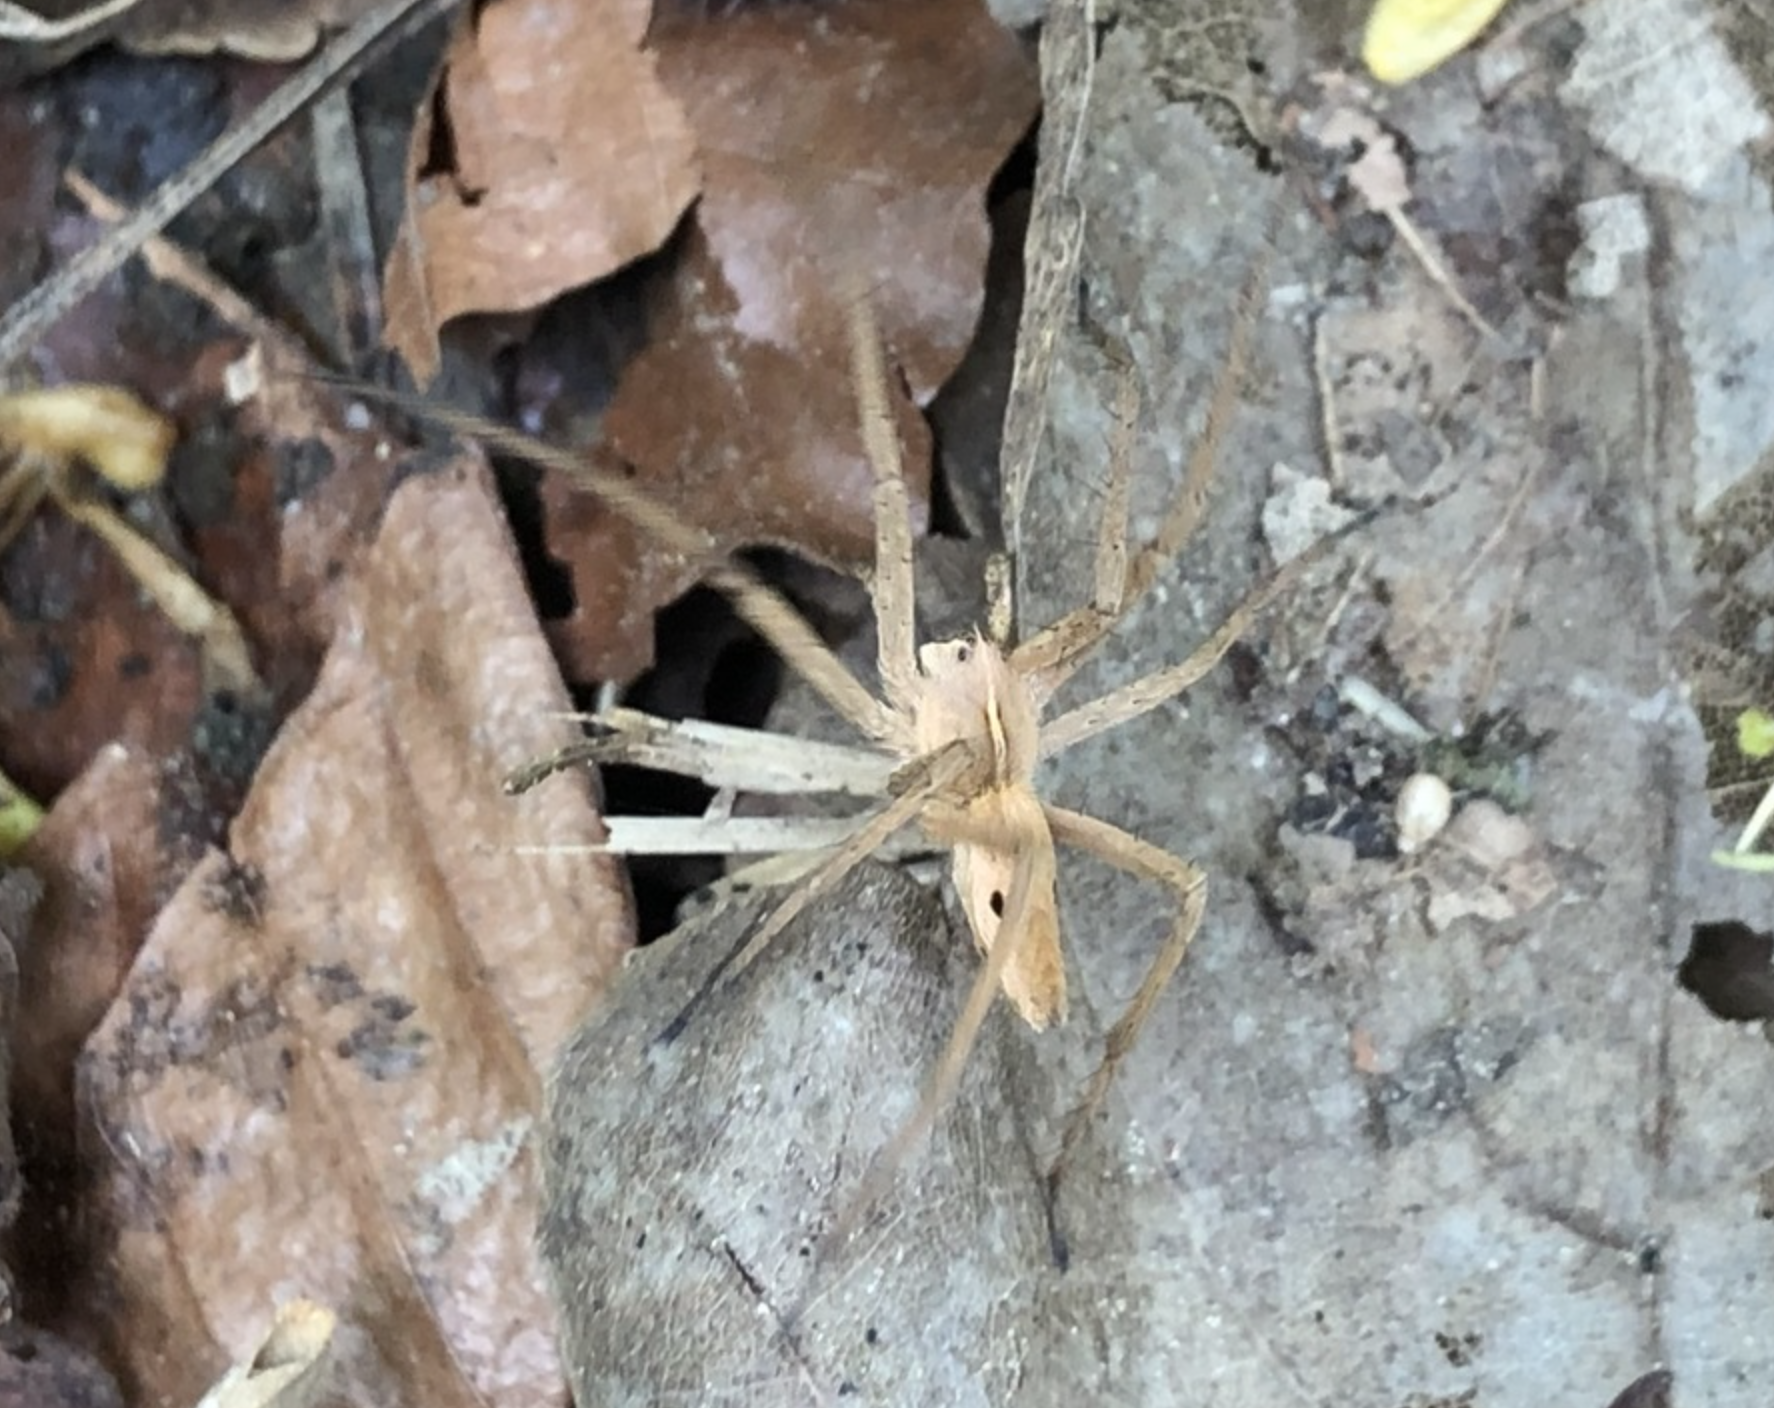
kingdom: Animalia
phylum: Arthropoda
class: Arachnida
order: Araneae
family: Pisauridae
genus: Pisaura
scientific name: Pisaura mirabilis
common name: Tent spider
